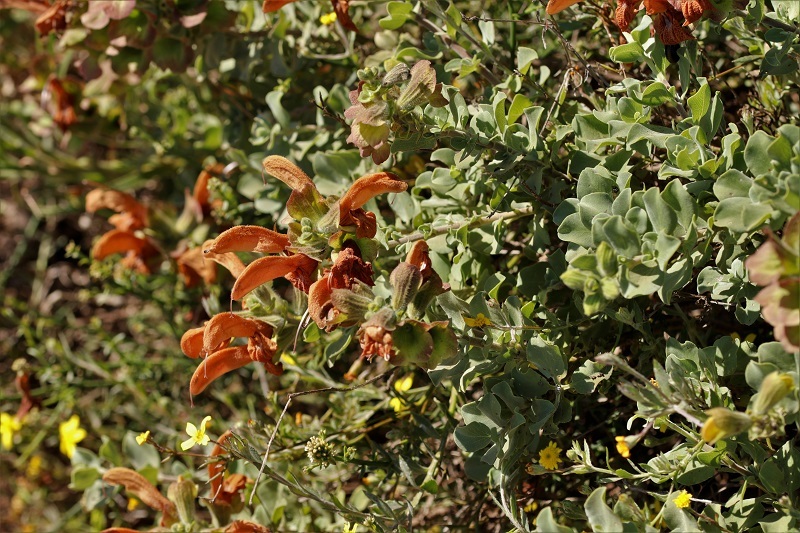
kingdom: Plantae
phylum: Tracheophyta
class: Magnoliopsida
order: Lamiales
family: Lamiaceae
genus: Salvia
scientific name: Salvia aurea
